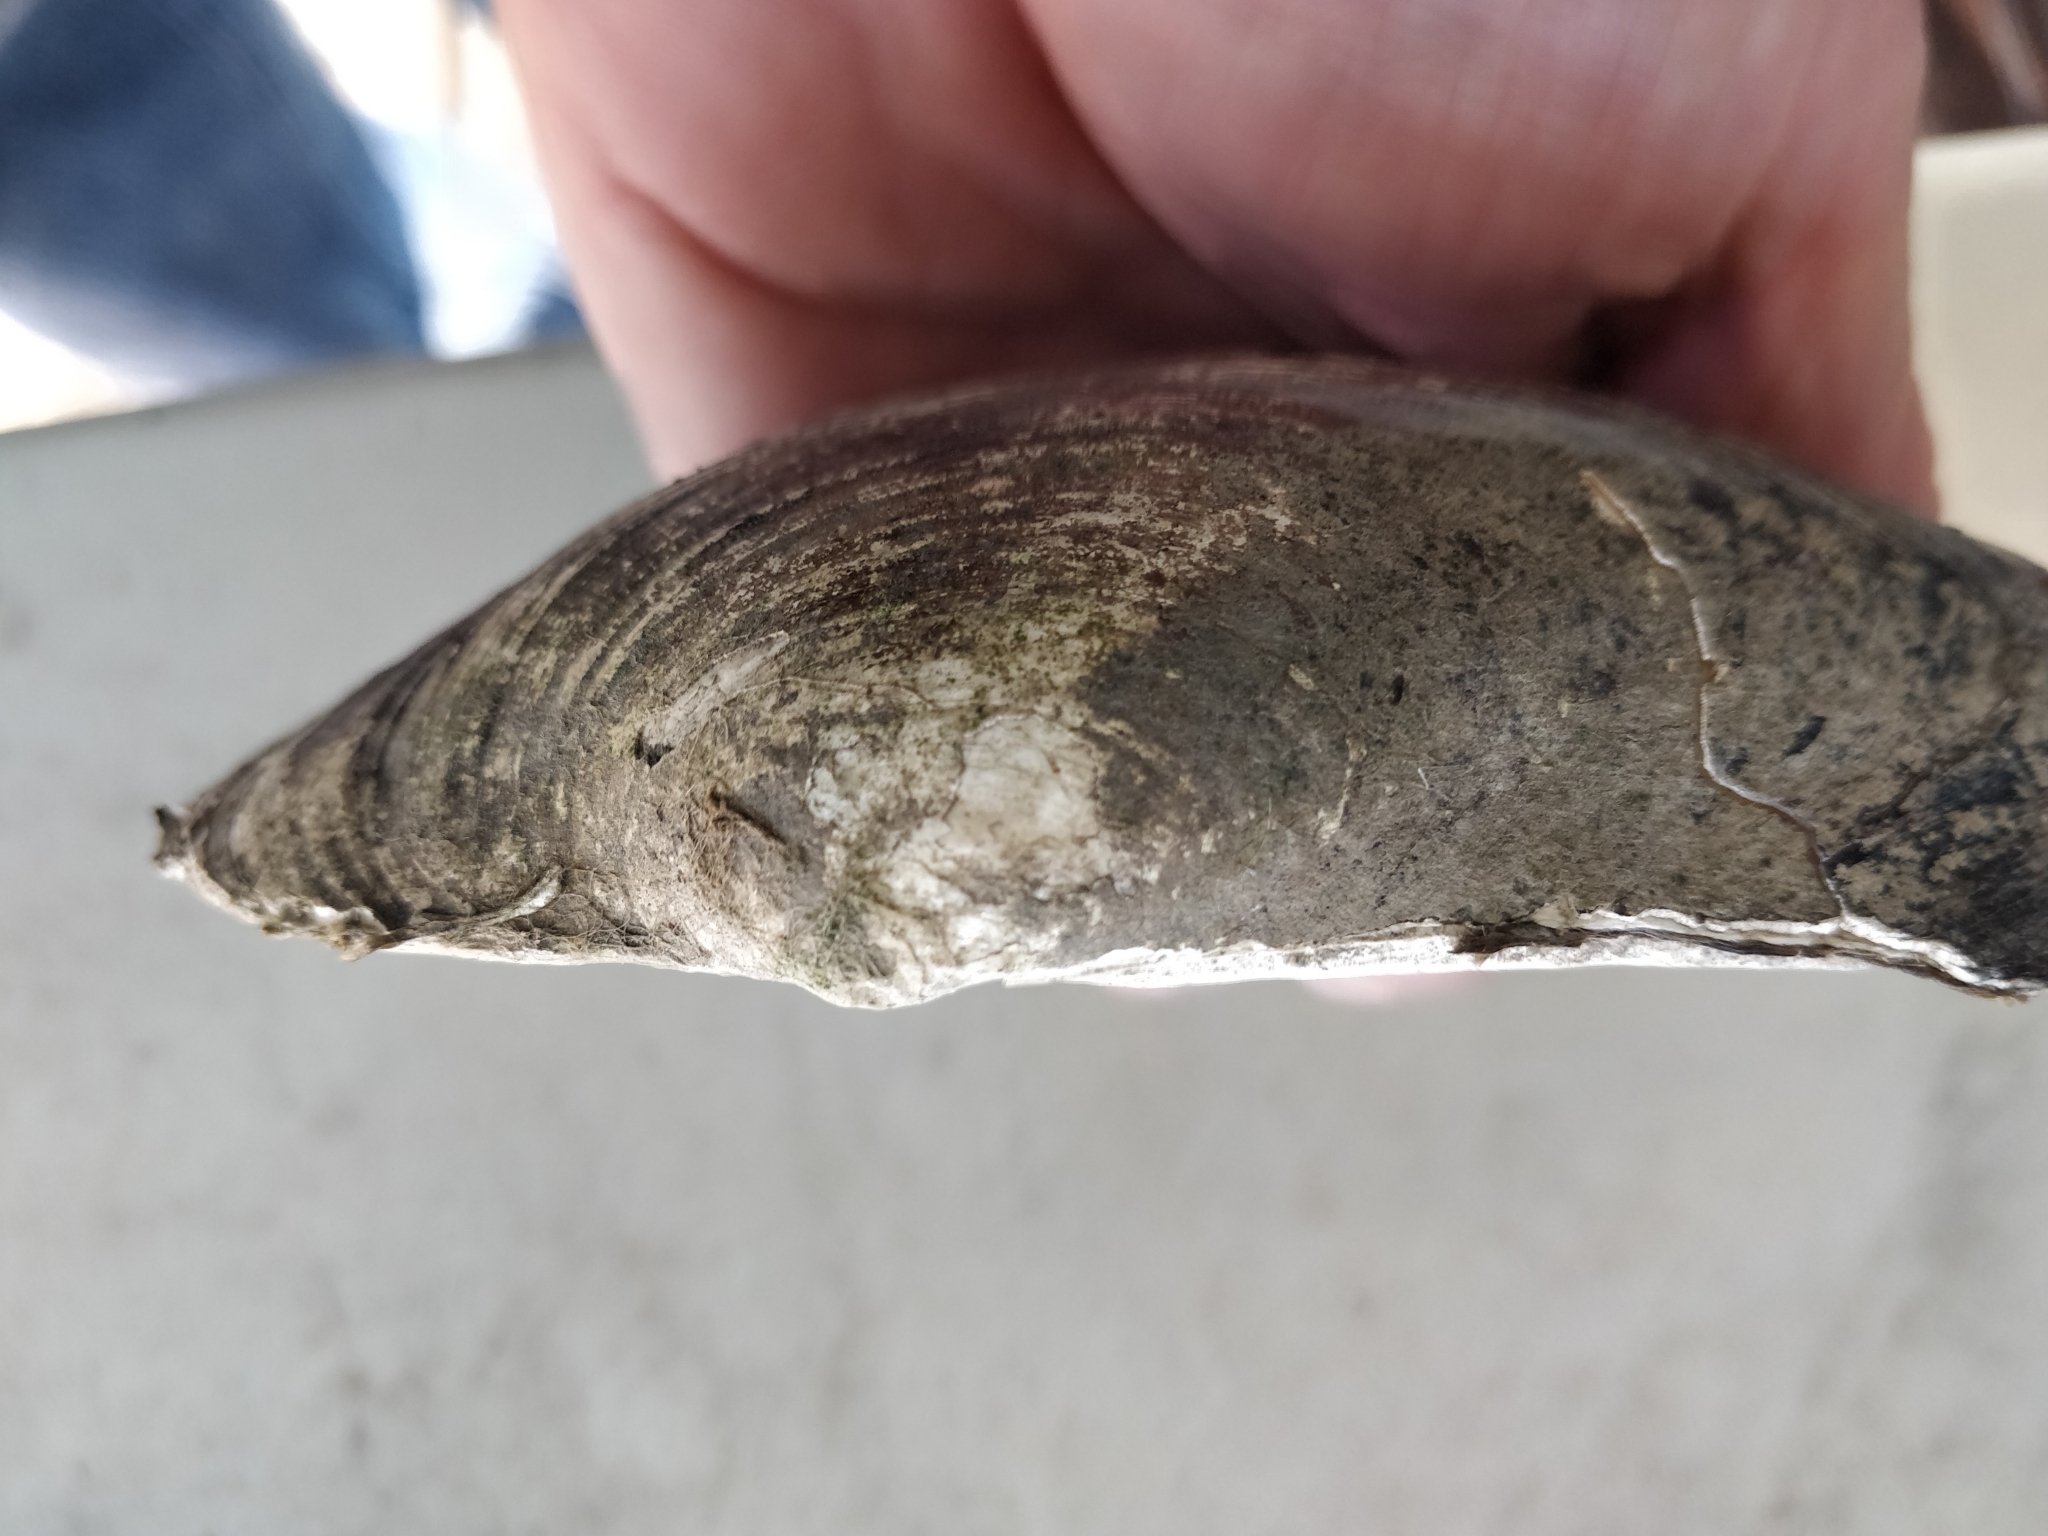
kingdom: Animalia
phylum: Mollusca
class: Bivalvia
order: Unionida
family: Unionidae
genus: Pyganodon
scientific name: Pyganodon grandis
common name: Giant floater
